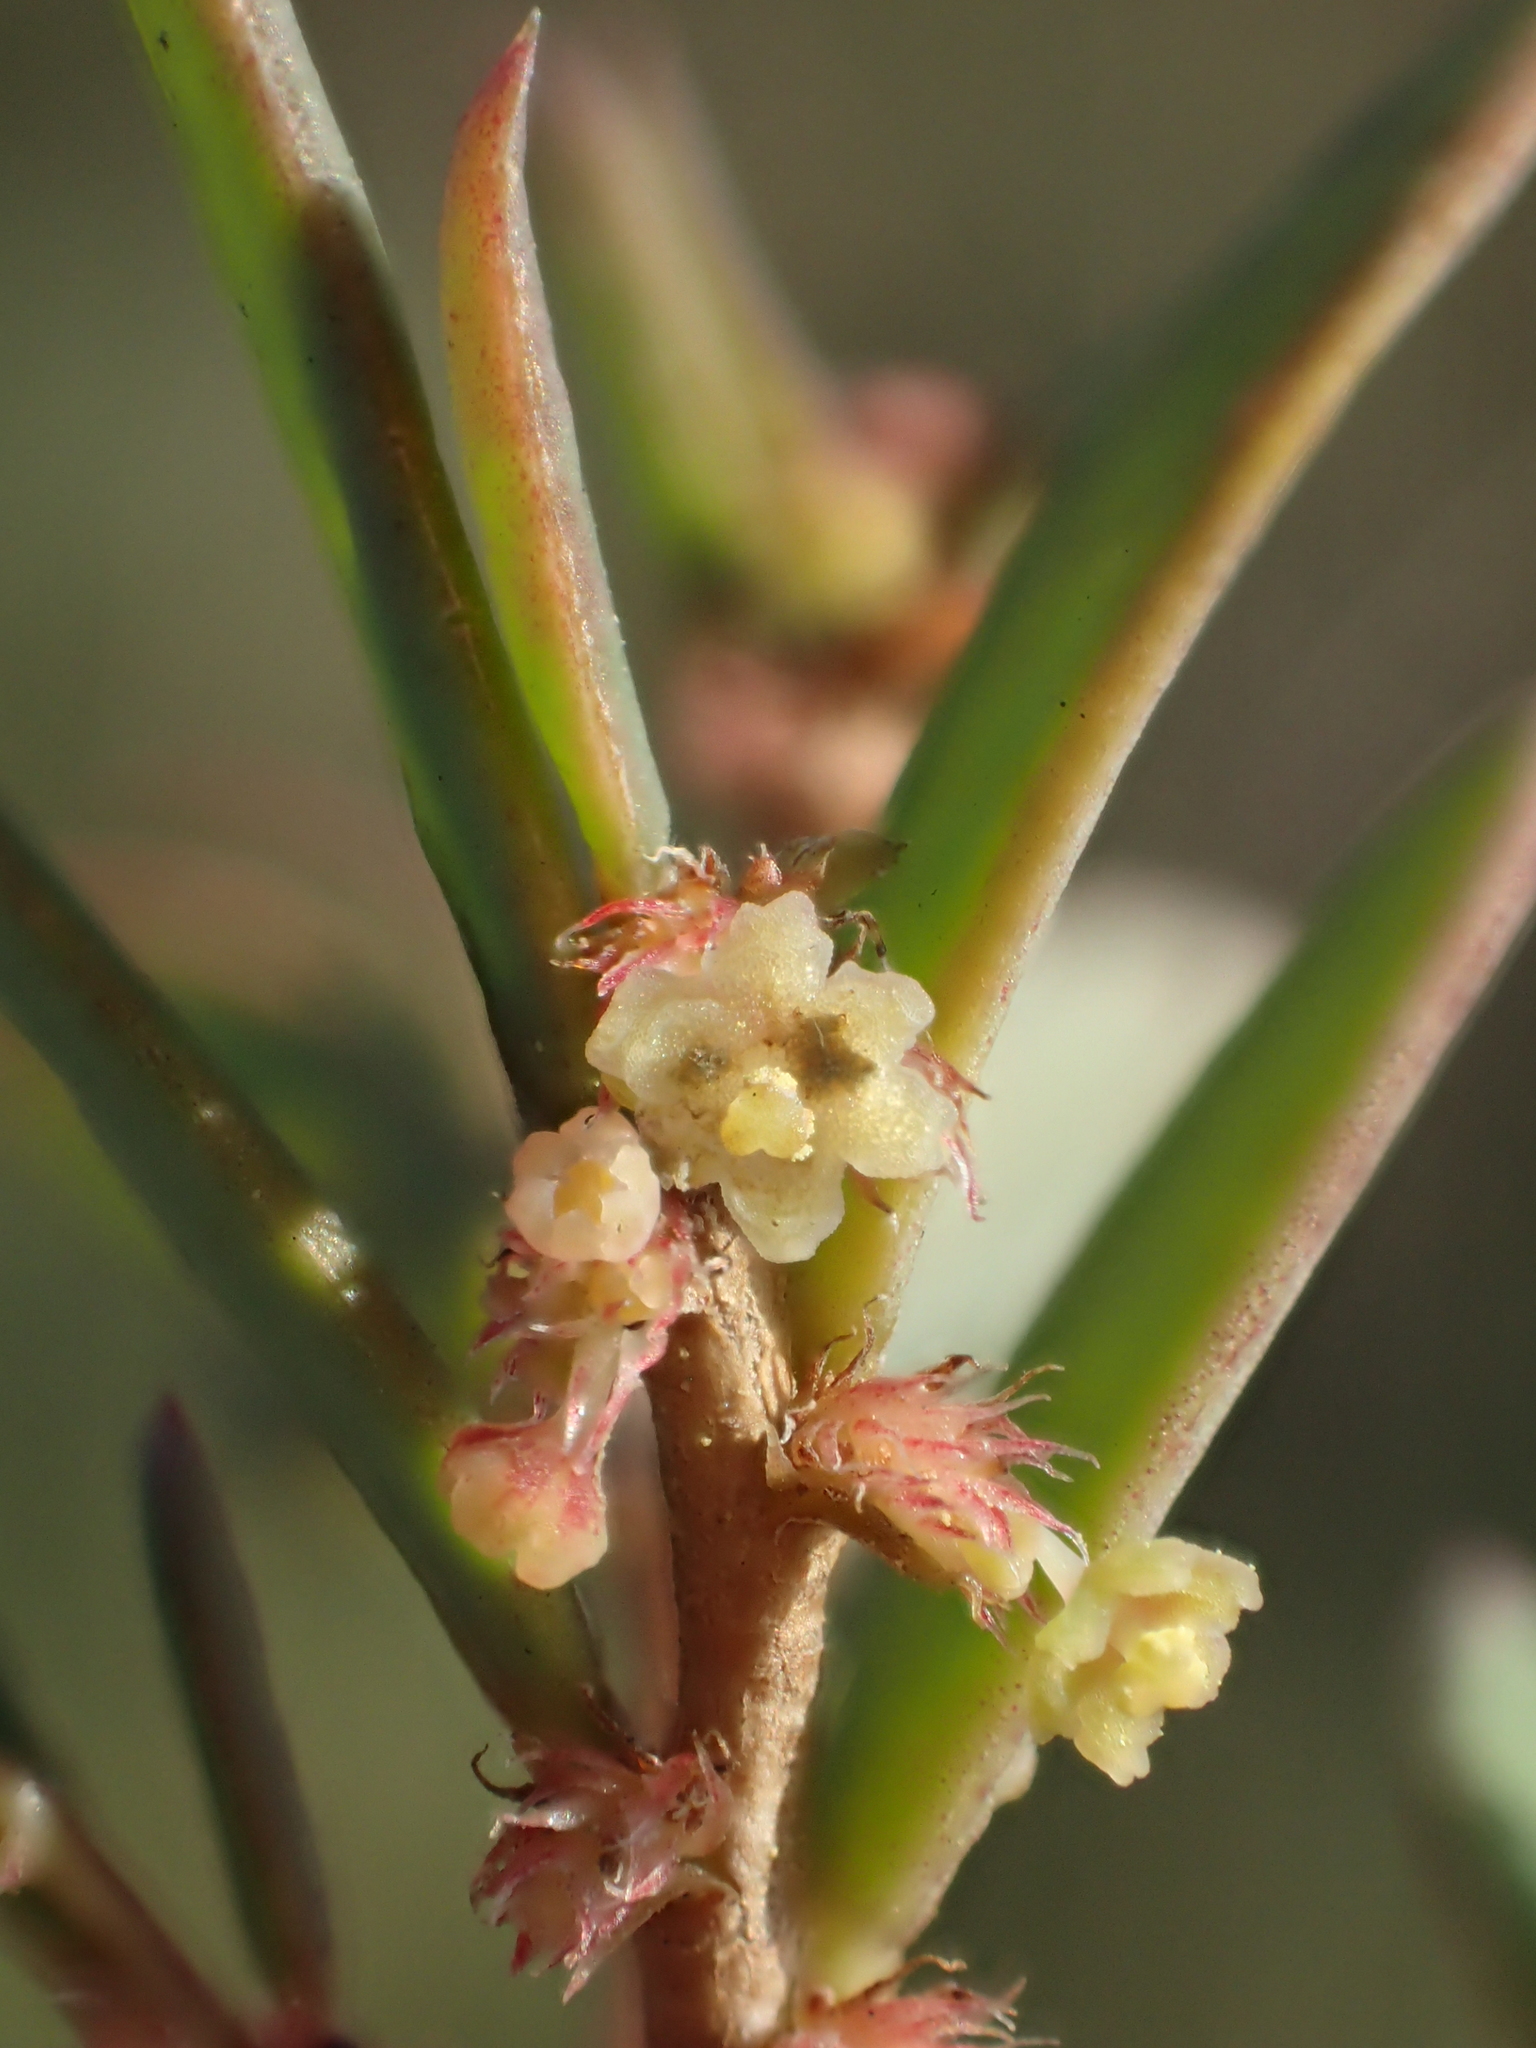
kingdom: Plantae
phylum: Tracheophyta
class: Magnoliopsida
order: Malpighiales
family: Phyllanthaceae
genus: Synostemon
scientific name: Synostemon bacciformis
